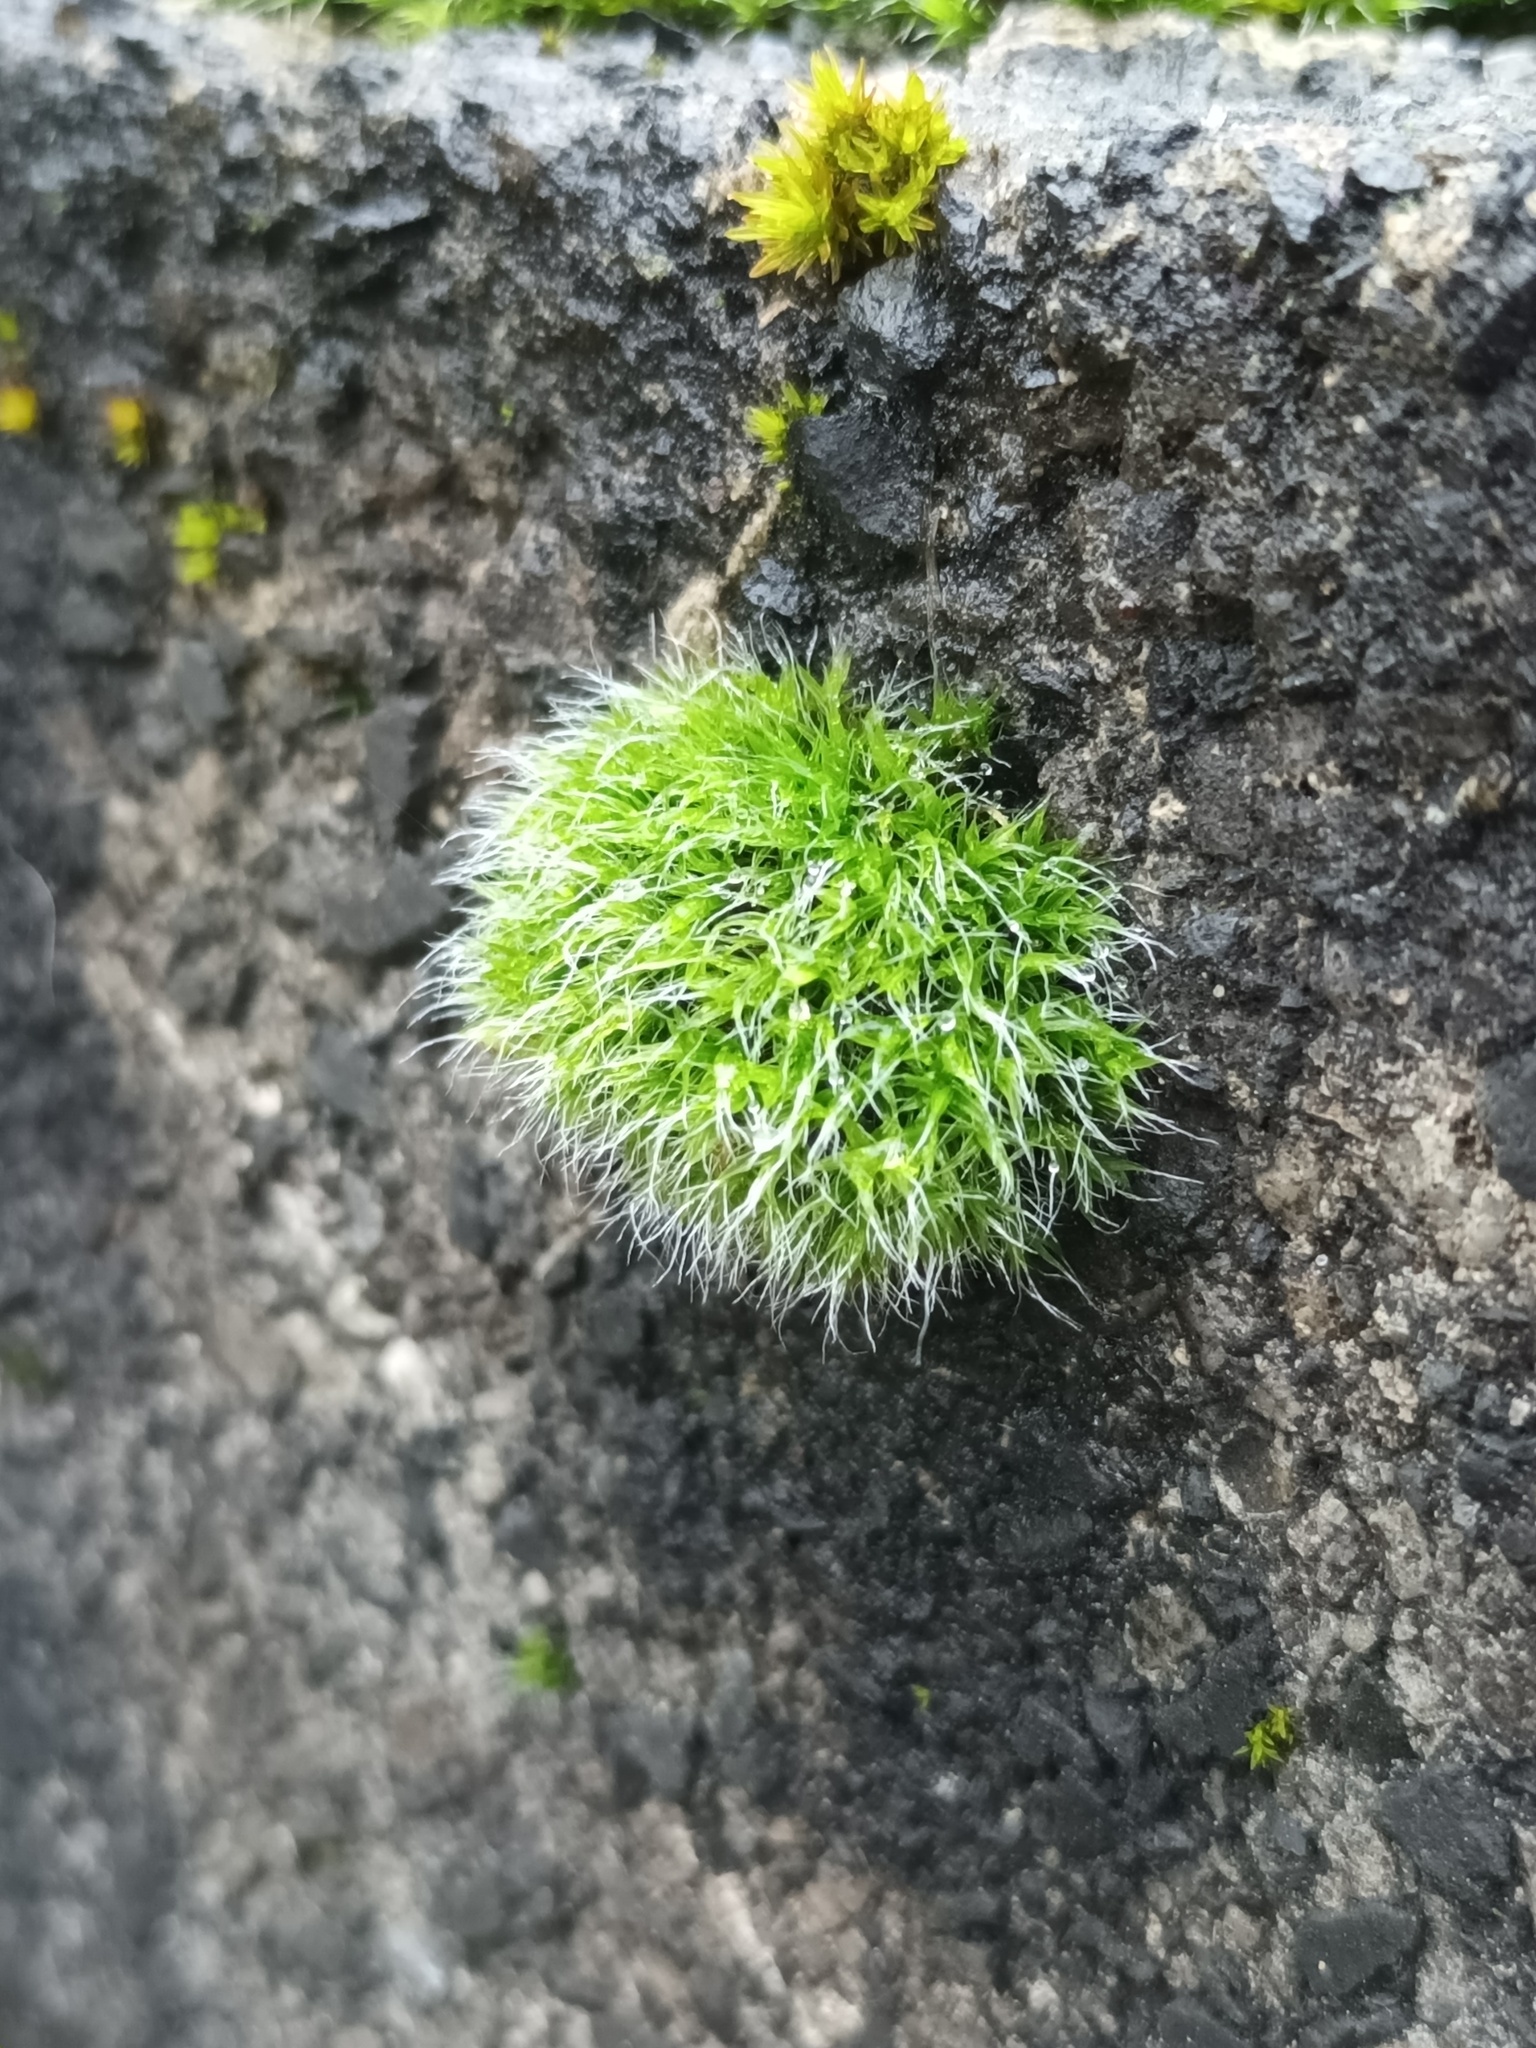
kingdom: Plantae
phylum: Bryophyta
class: Bryopsida
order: Grimmiales
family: Grimmiaceae
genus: Grimmia
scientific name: Grimmia pulvinata
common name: Grey-cushioned grimmia
